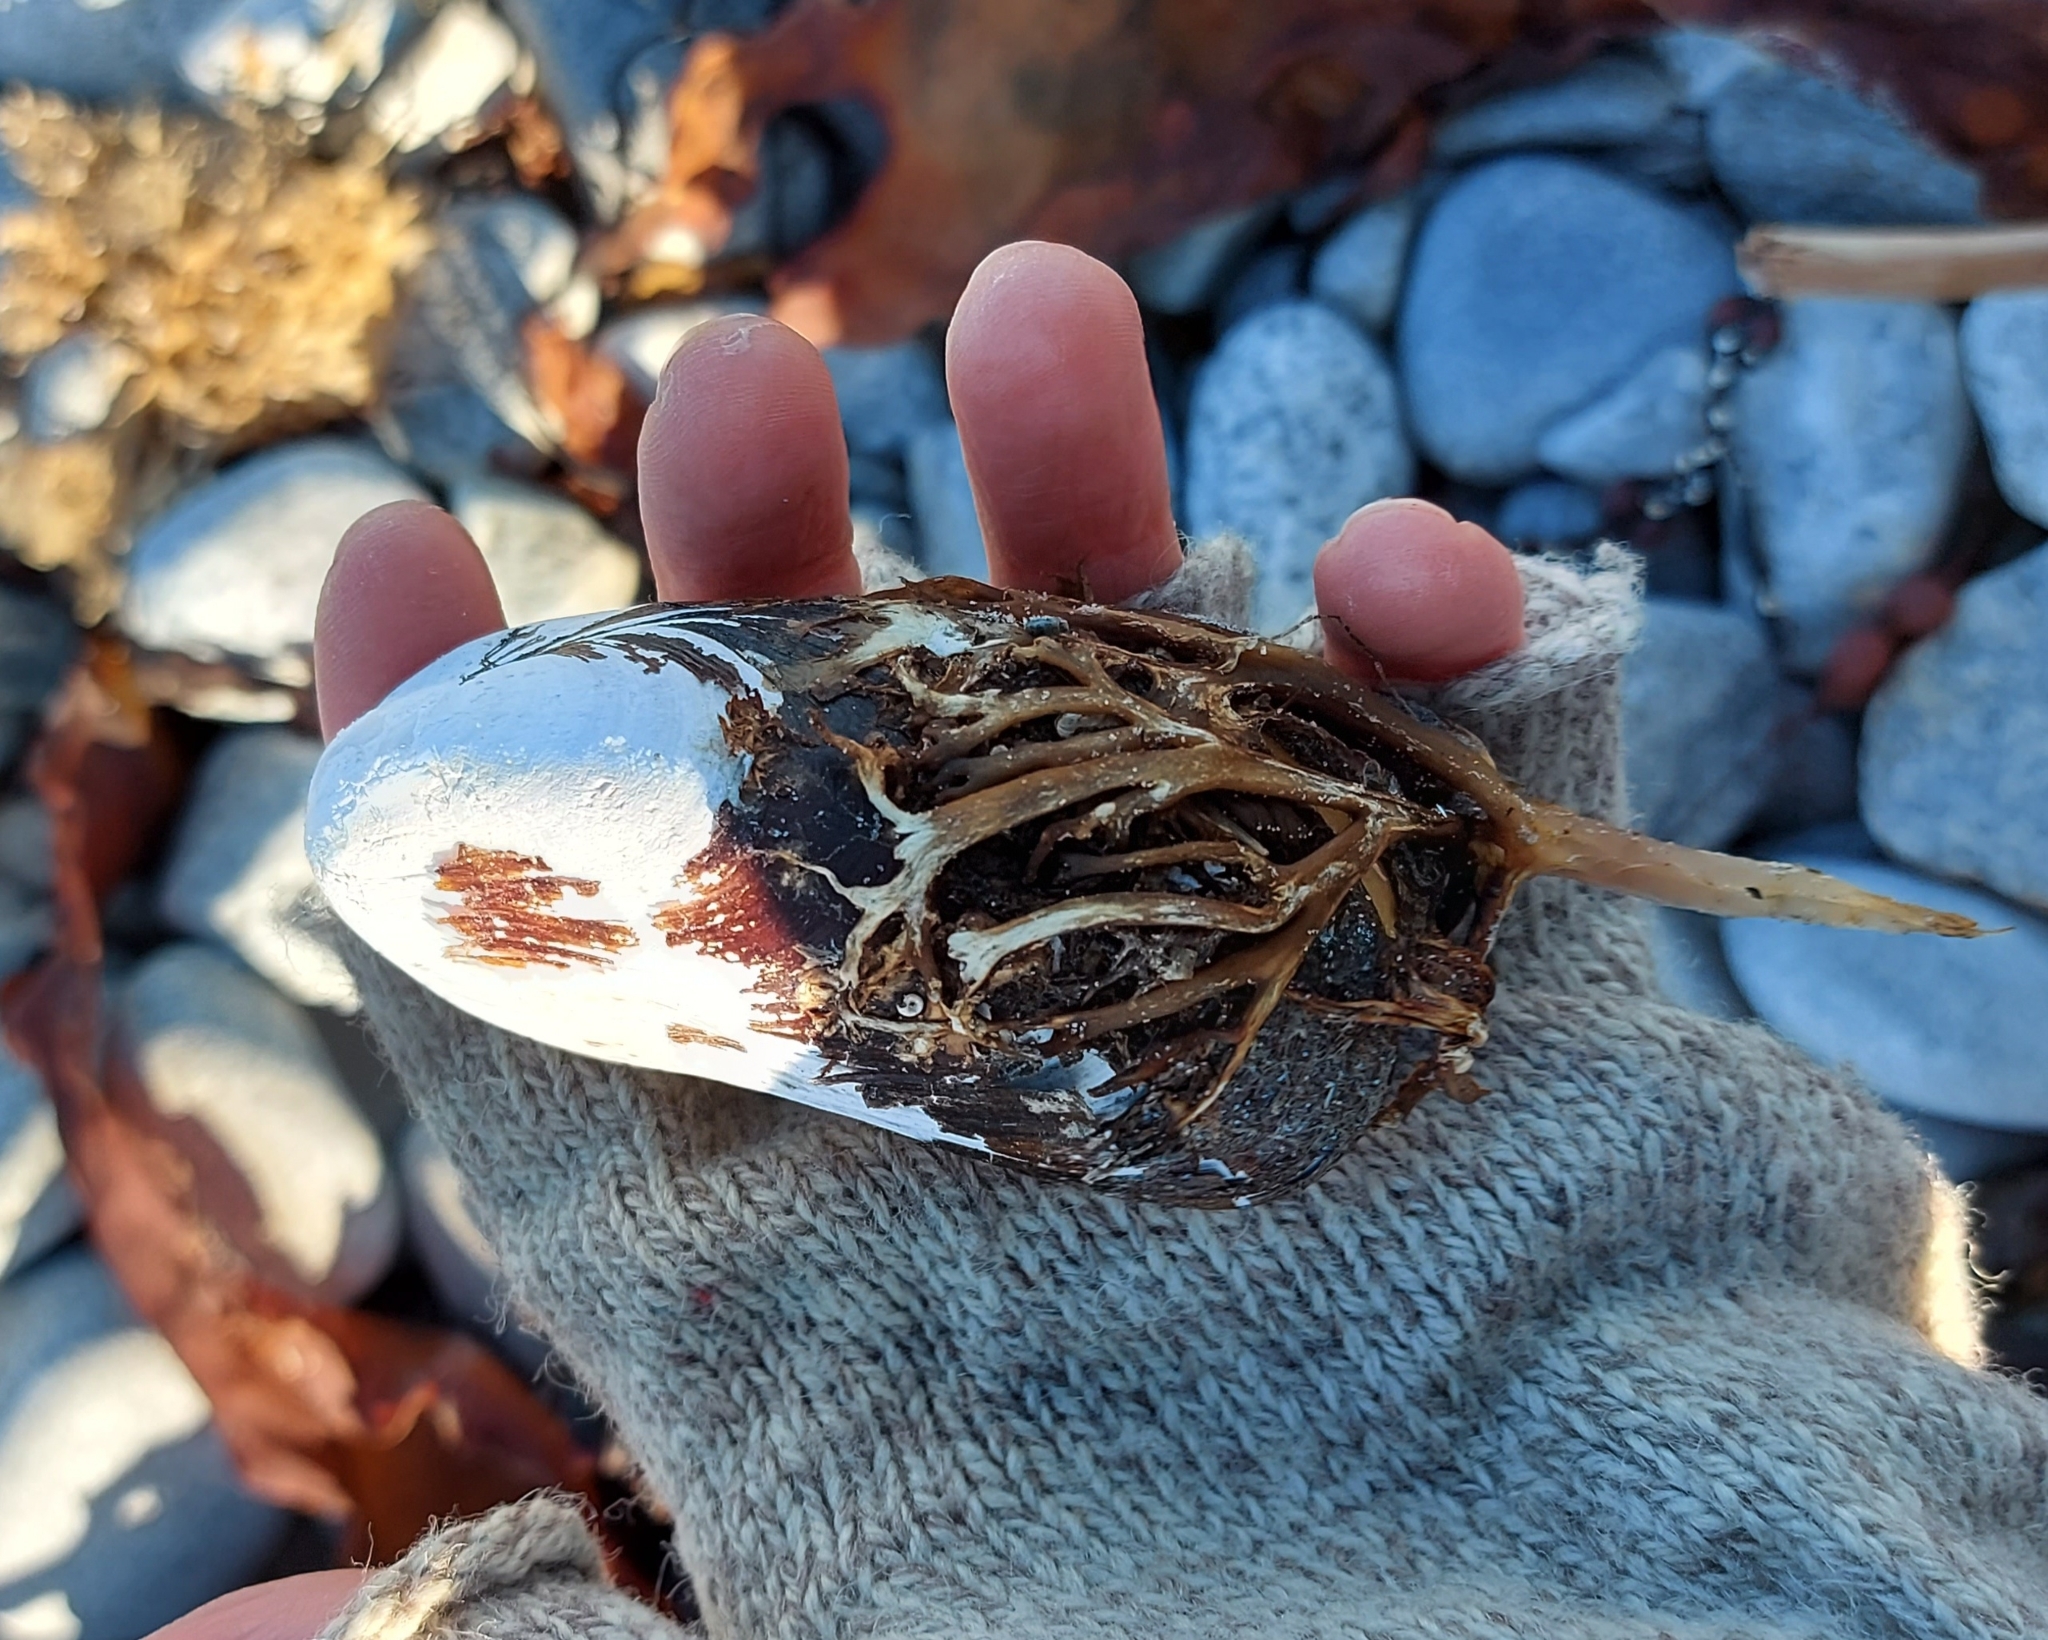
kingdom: Animalia
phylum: Mollusca
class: Bivalvia
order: Mytilida
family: Mytilidae
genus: Modiolus
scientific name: Modiolus modiolus
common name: Horse-mussel
